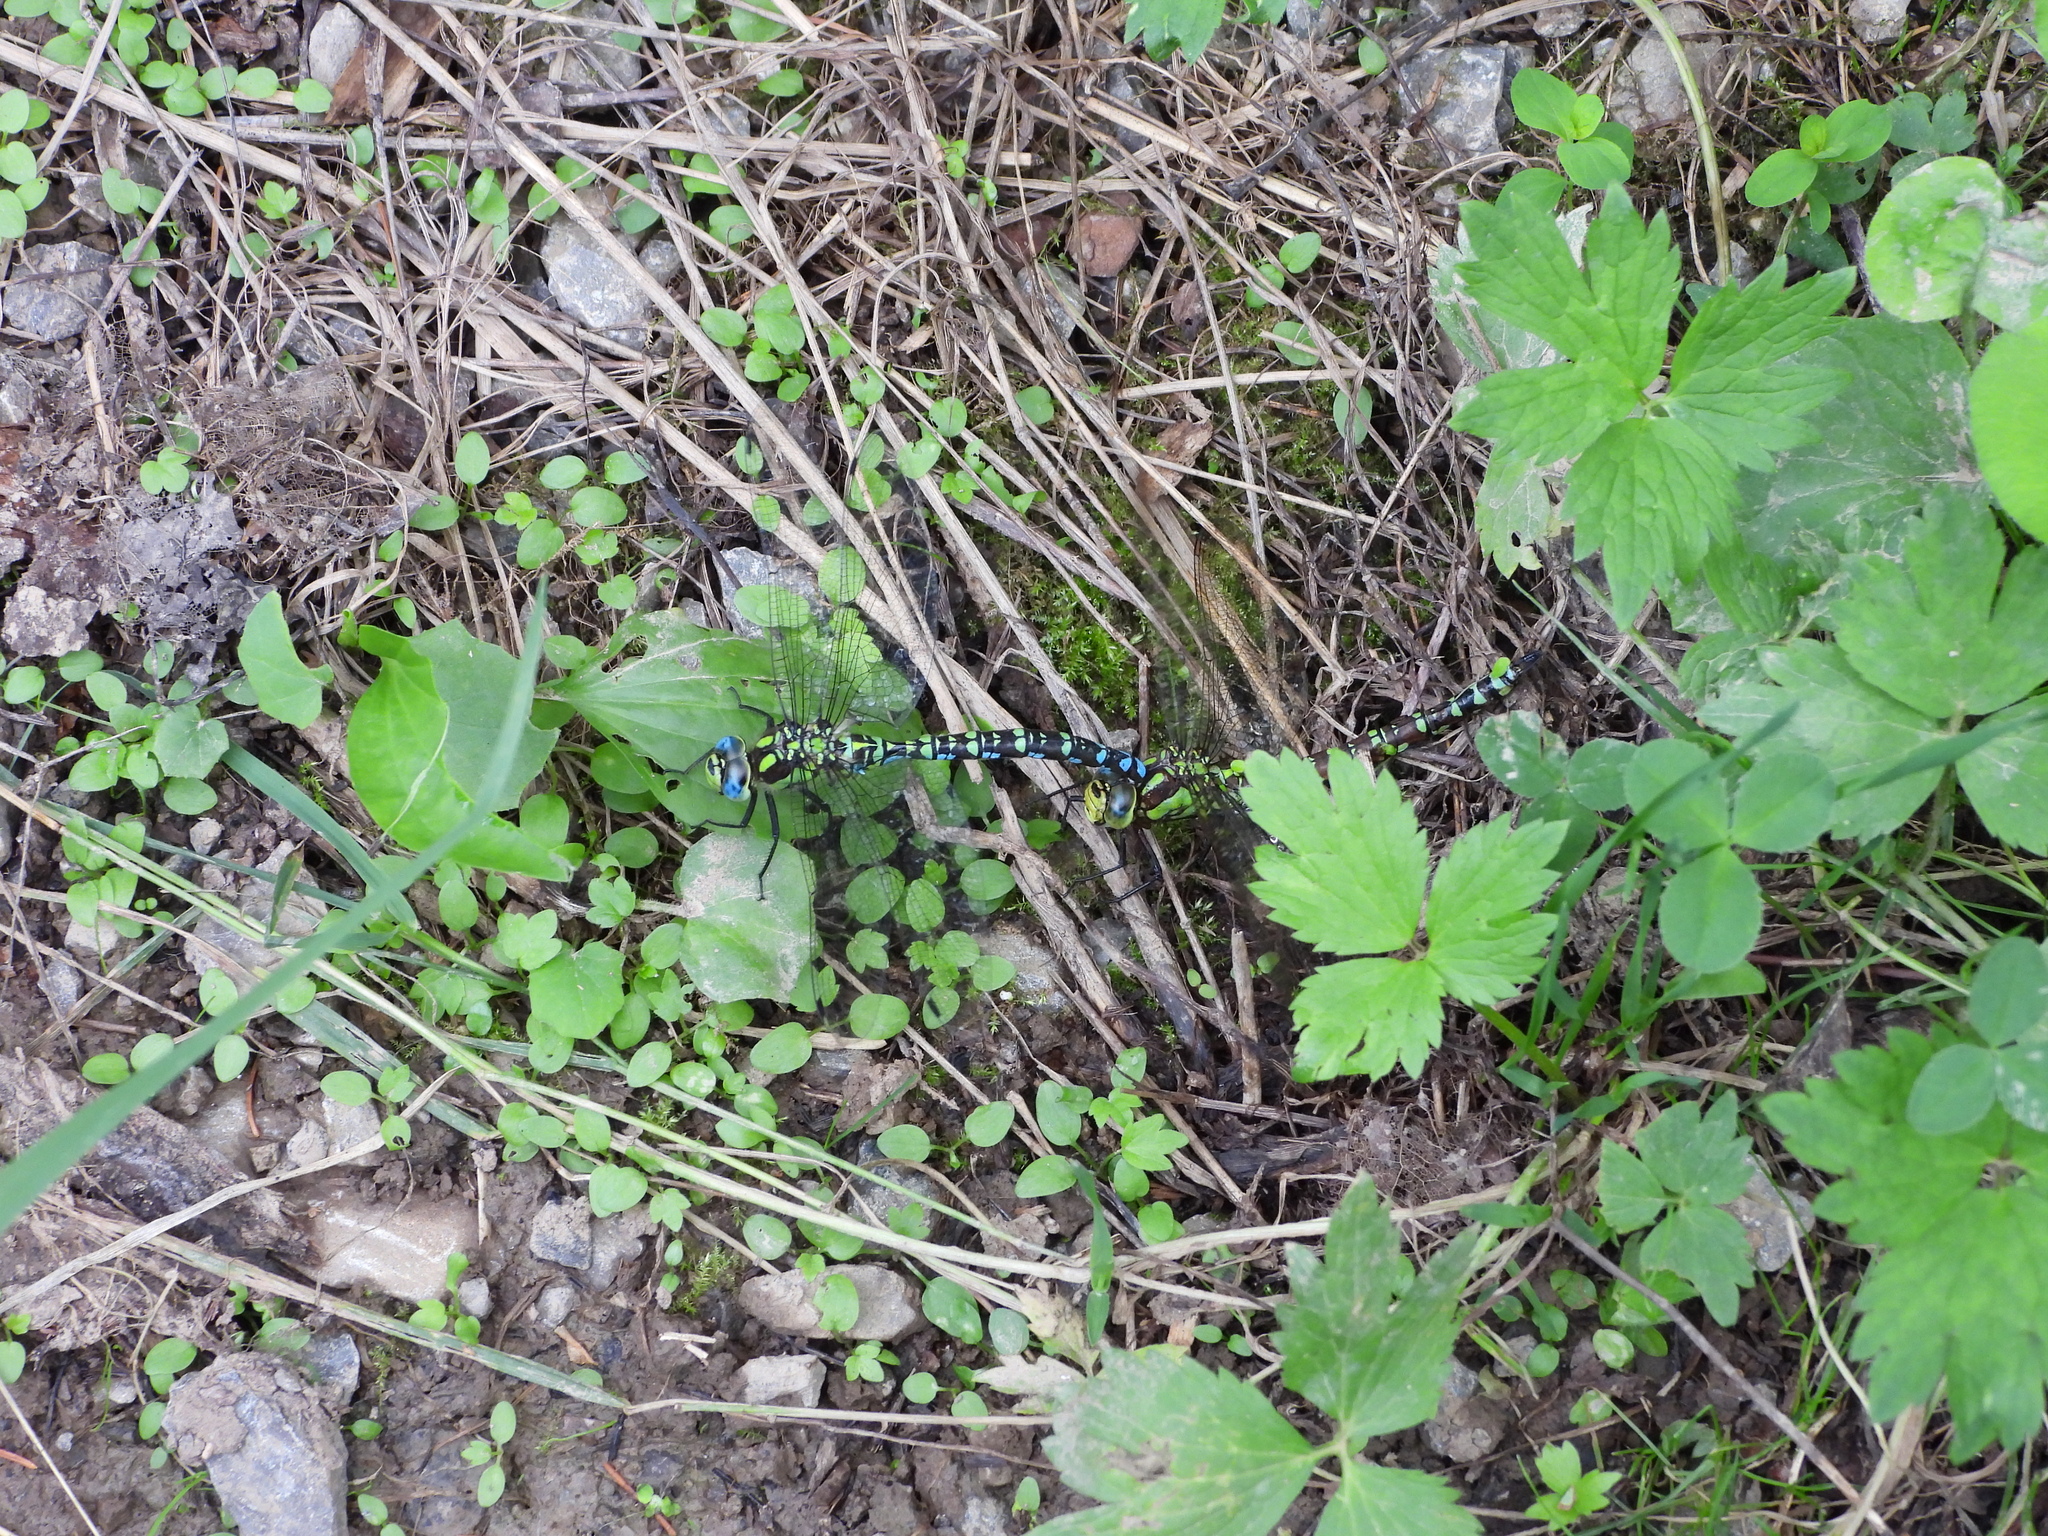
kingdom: Animalia
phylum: Arthropoda
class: Insecta
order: Odonata
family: Aeshnidae
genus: Aeshna
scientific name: Aeshna cyanea
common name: Southern hawker
